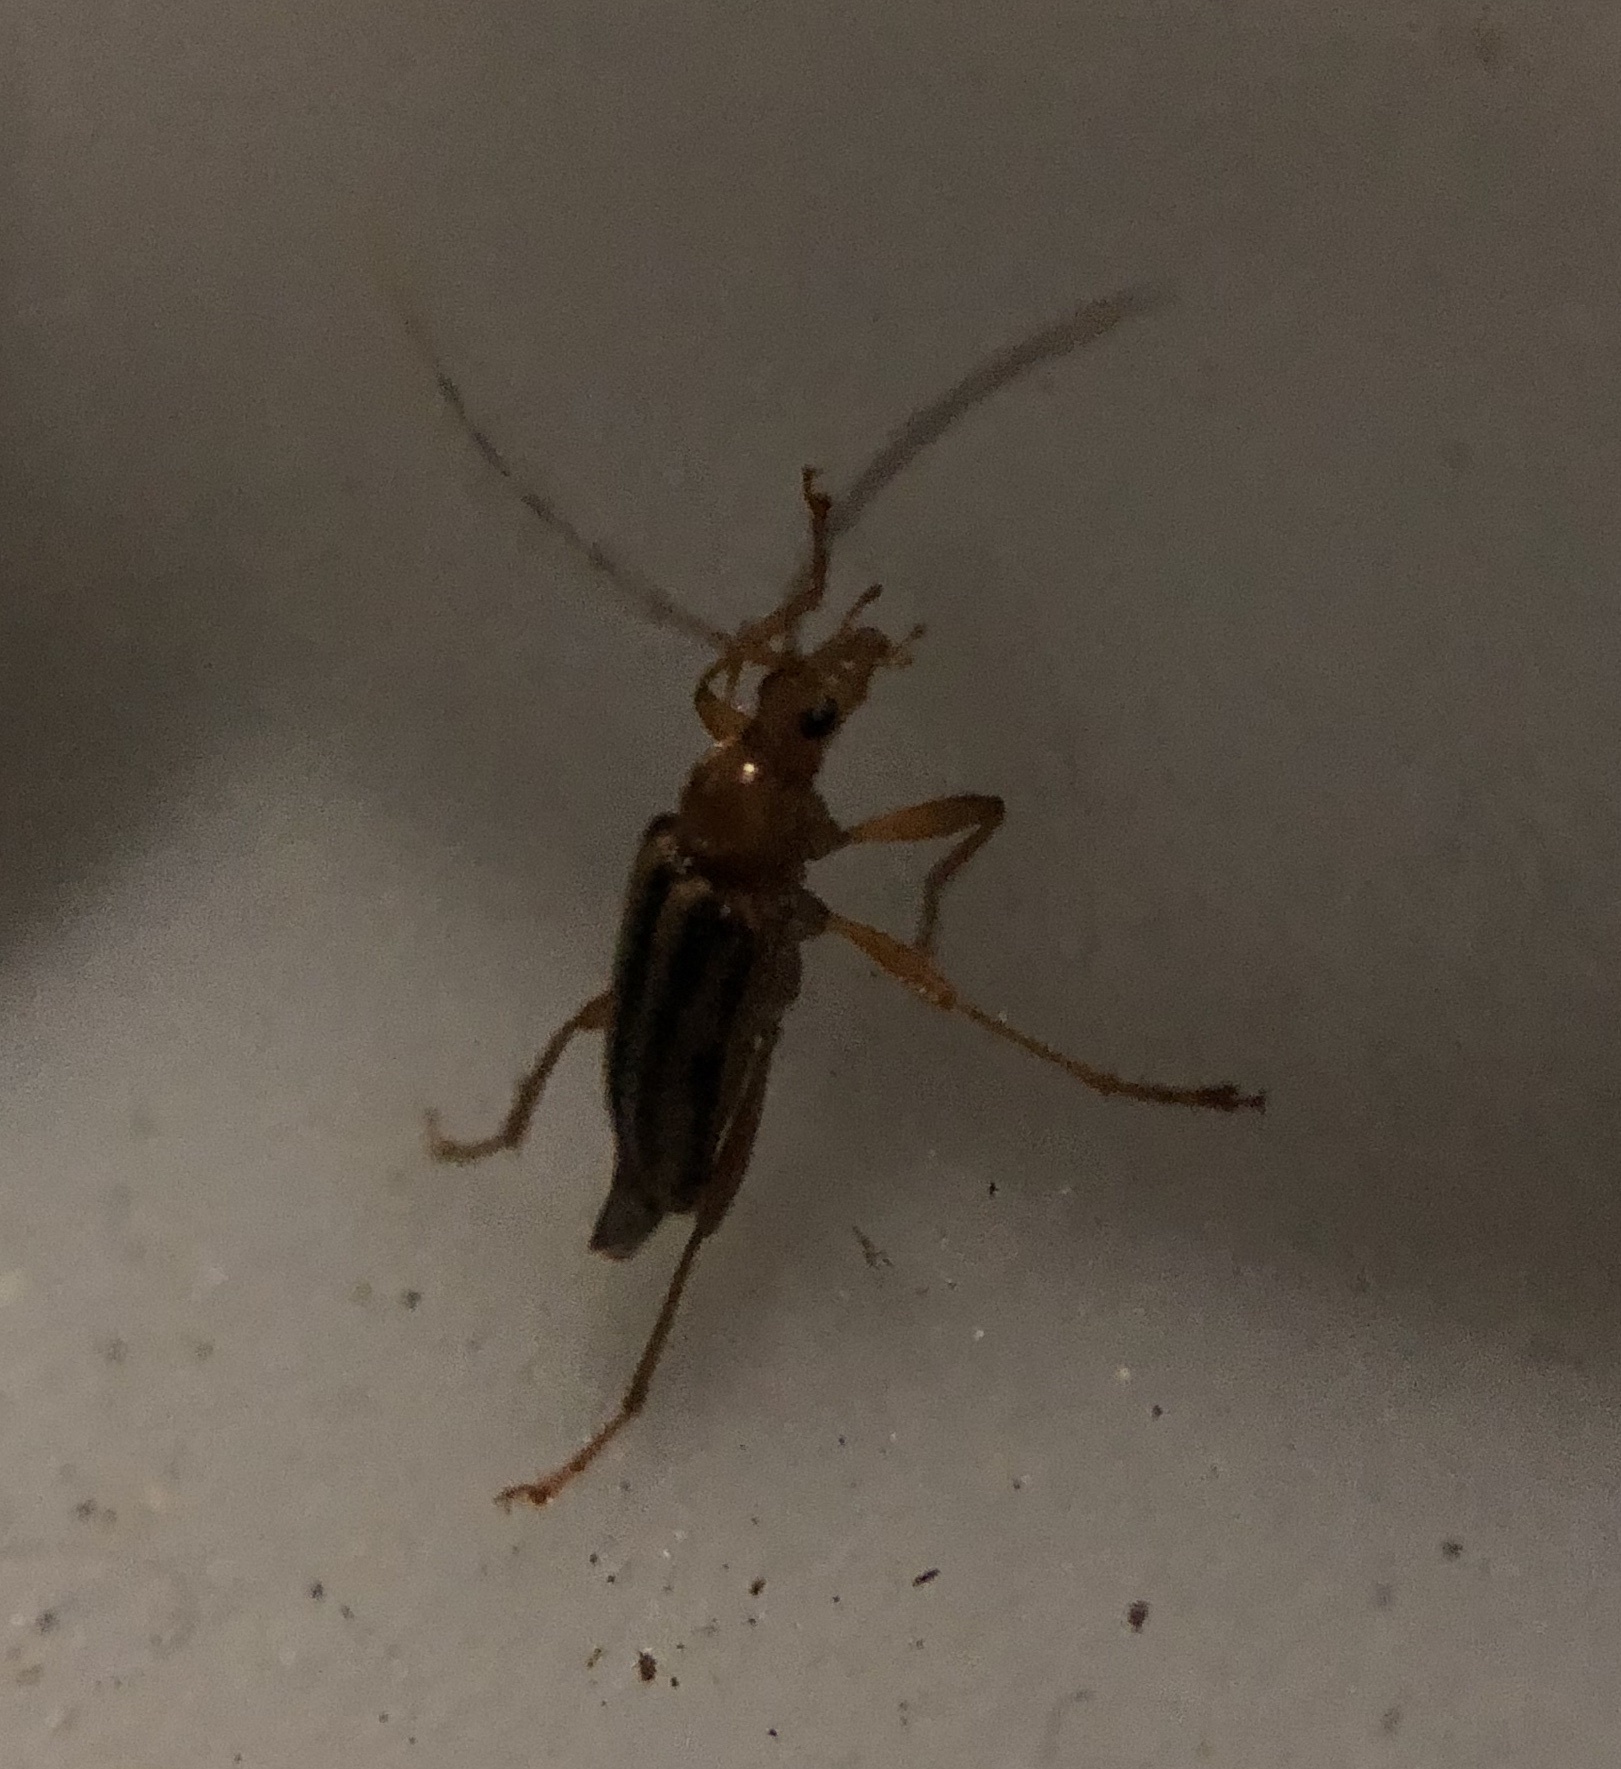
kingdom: Animalia
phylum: Arthropoda
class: Insecta
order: Coleoptera
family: Cerambycidae
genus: Metacmaeops
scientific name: Metacmaeops vittata
